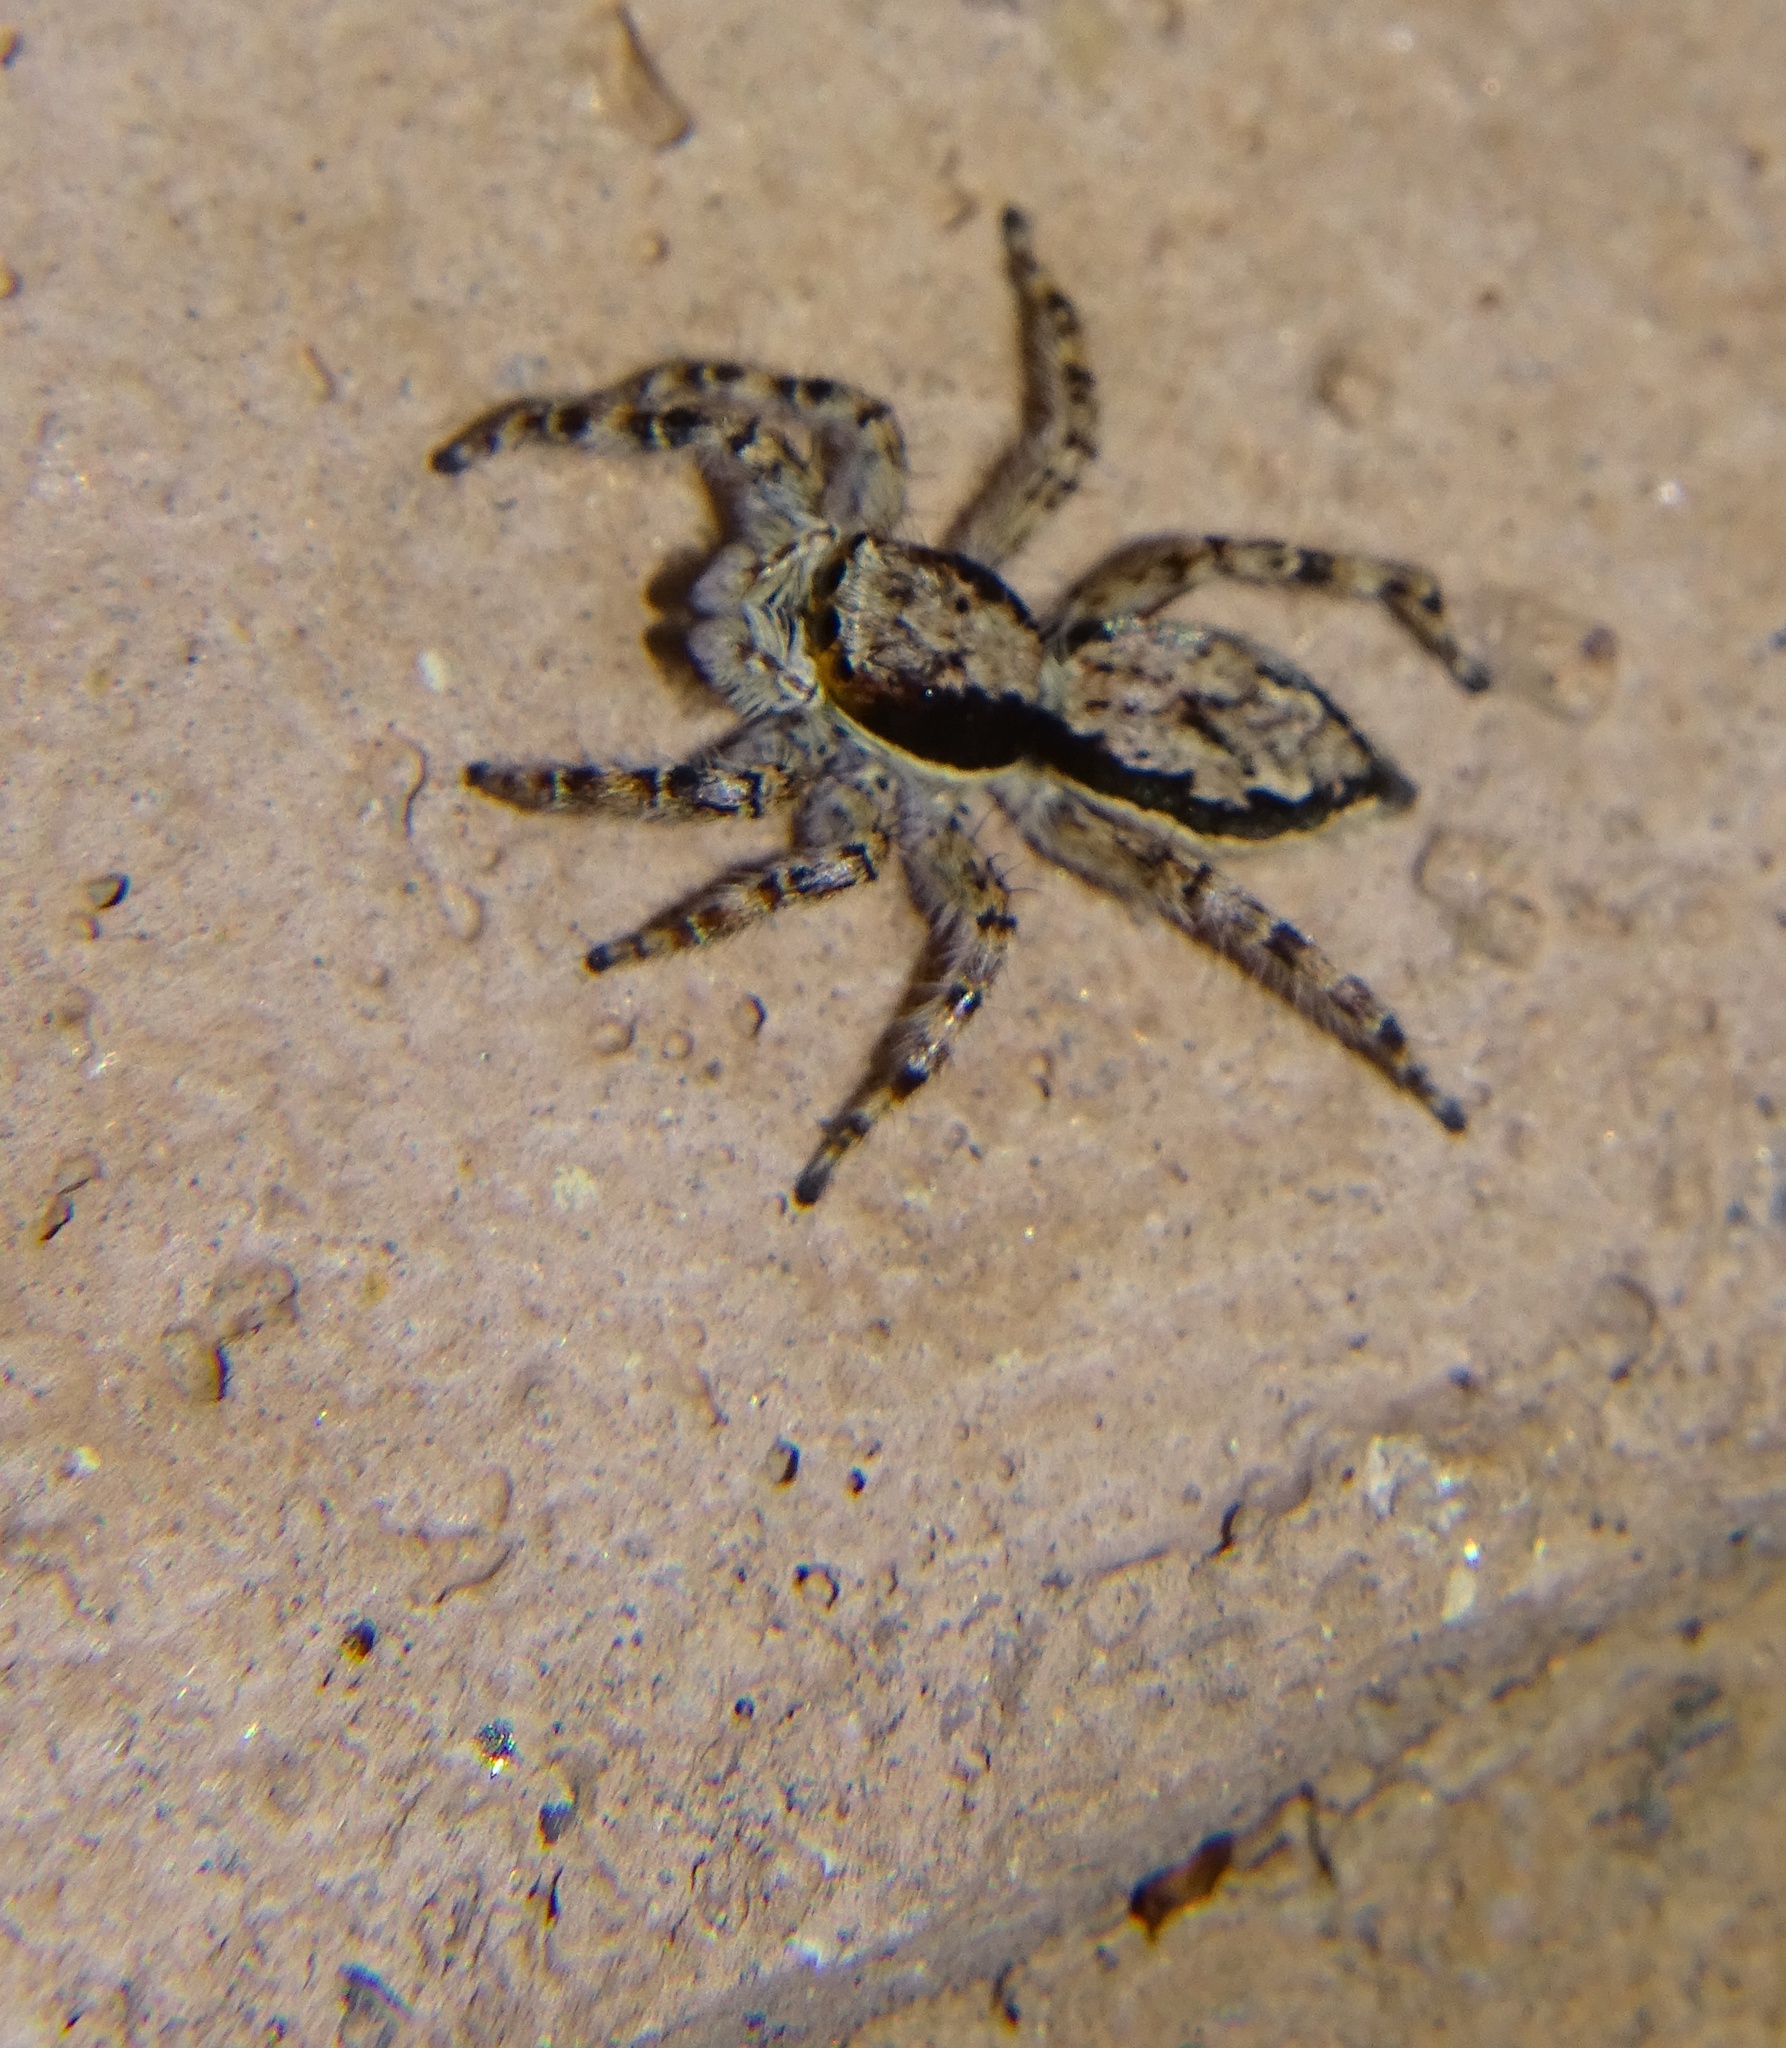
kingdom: Animalia
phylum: Arthropoda
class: Arachnida
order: Araneae
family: Salticidae
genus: Menemerus
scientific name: Menemerus bivittatus
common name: Gray wall jumper
